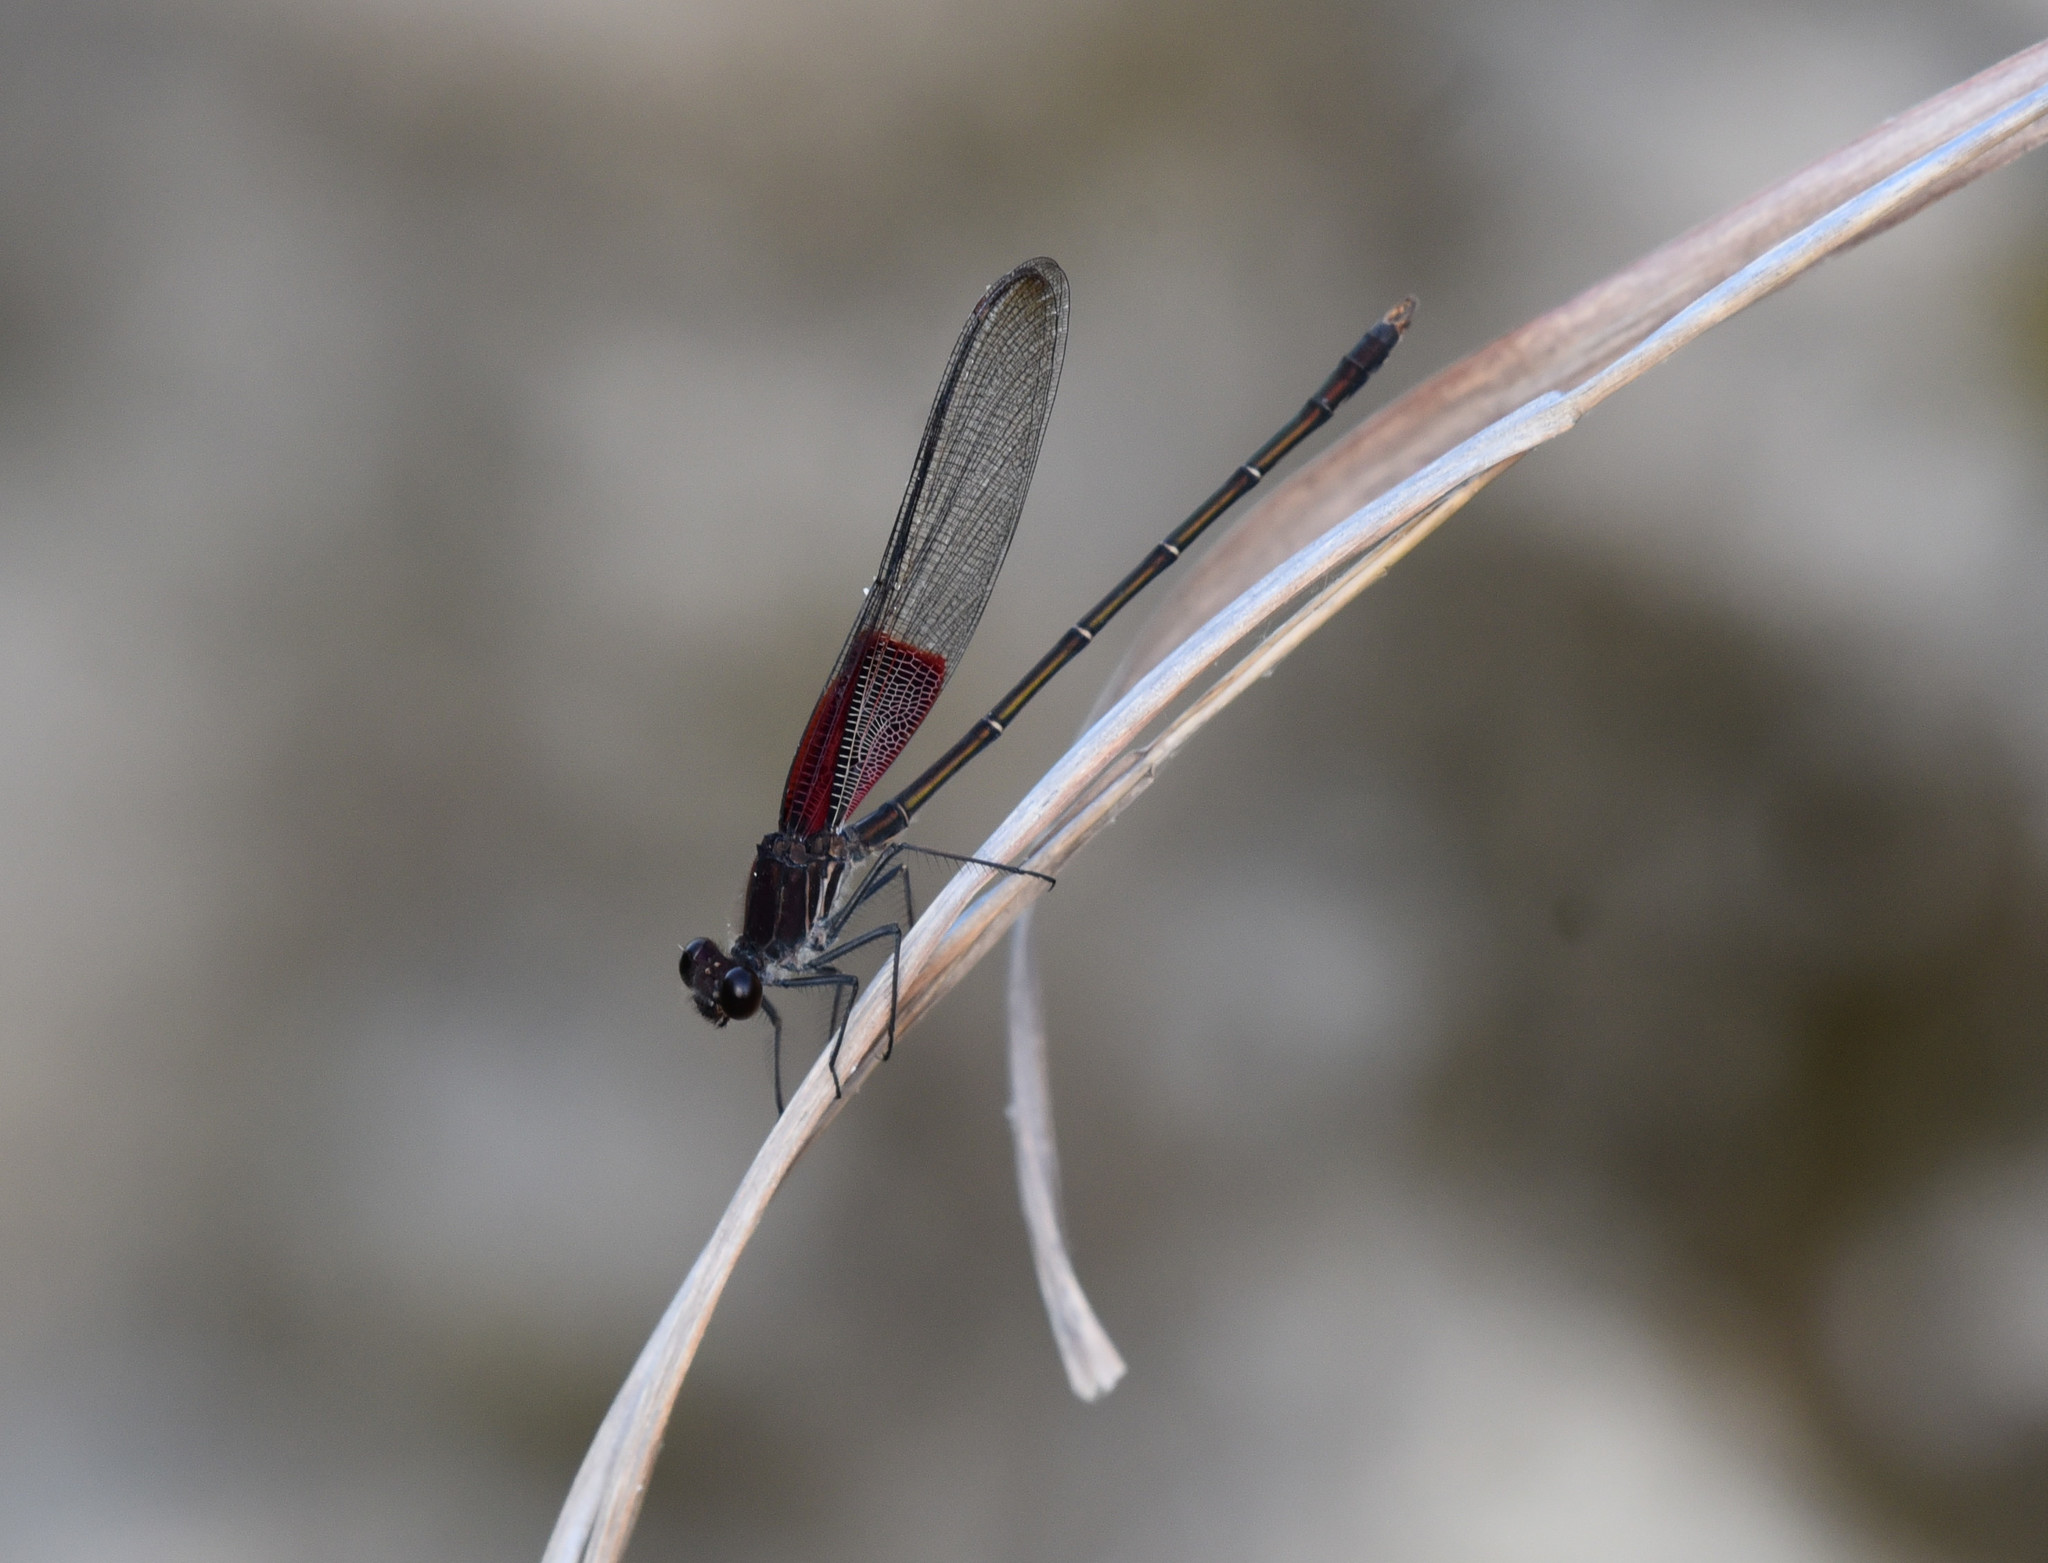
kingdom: Animalia
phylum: Arthropoda
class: Insecta
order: Odonata
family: Calopterygidae
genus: Hetaerina
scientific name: Hetaerina americana
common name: American rubyspot
